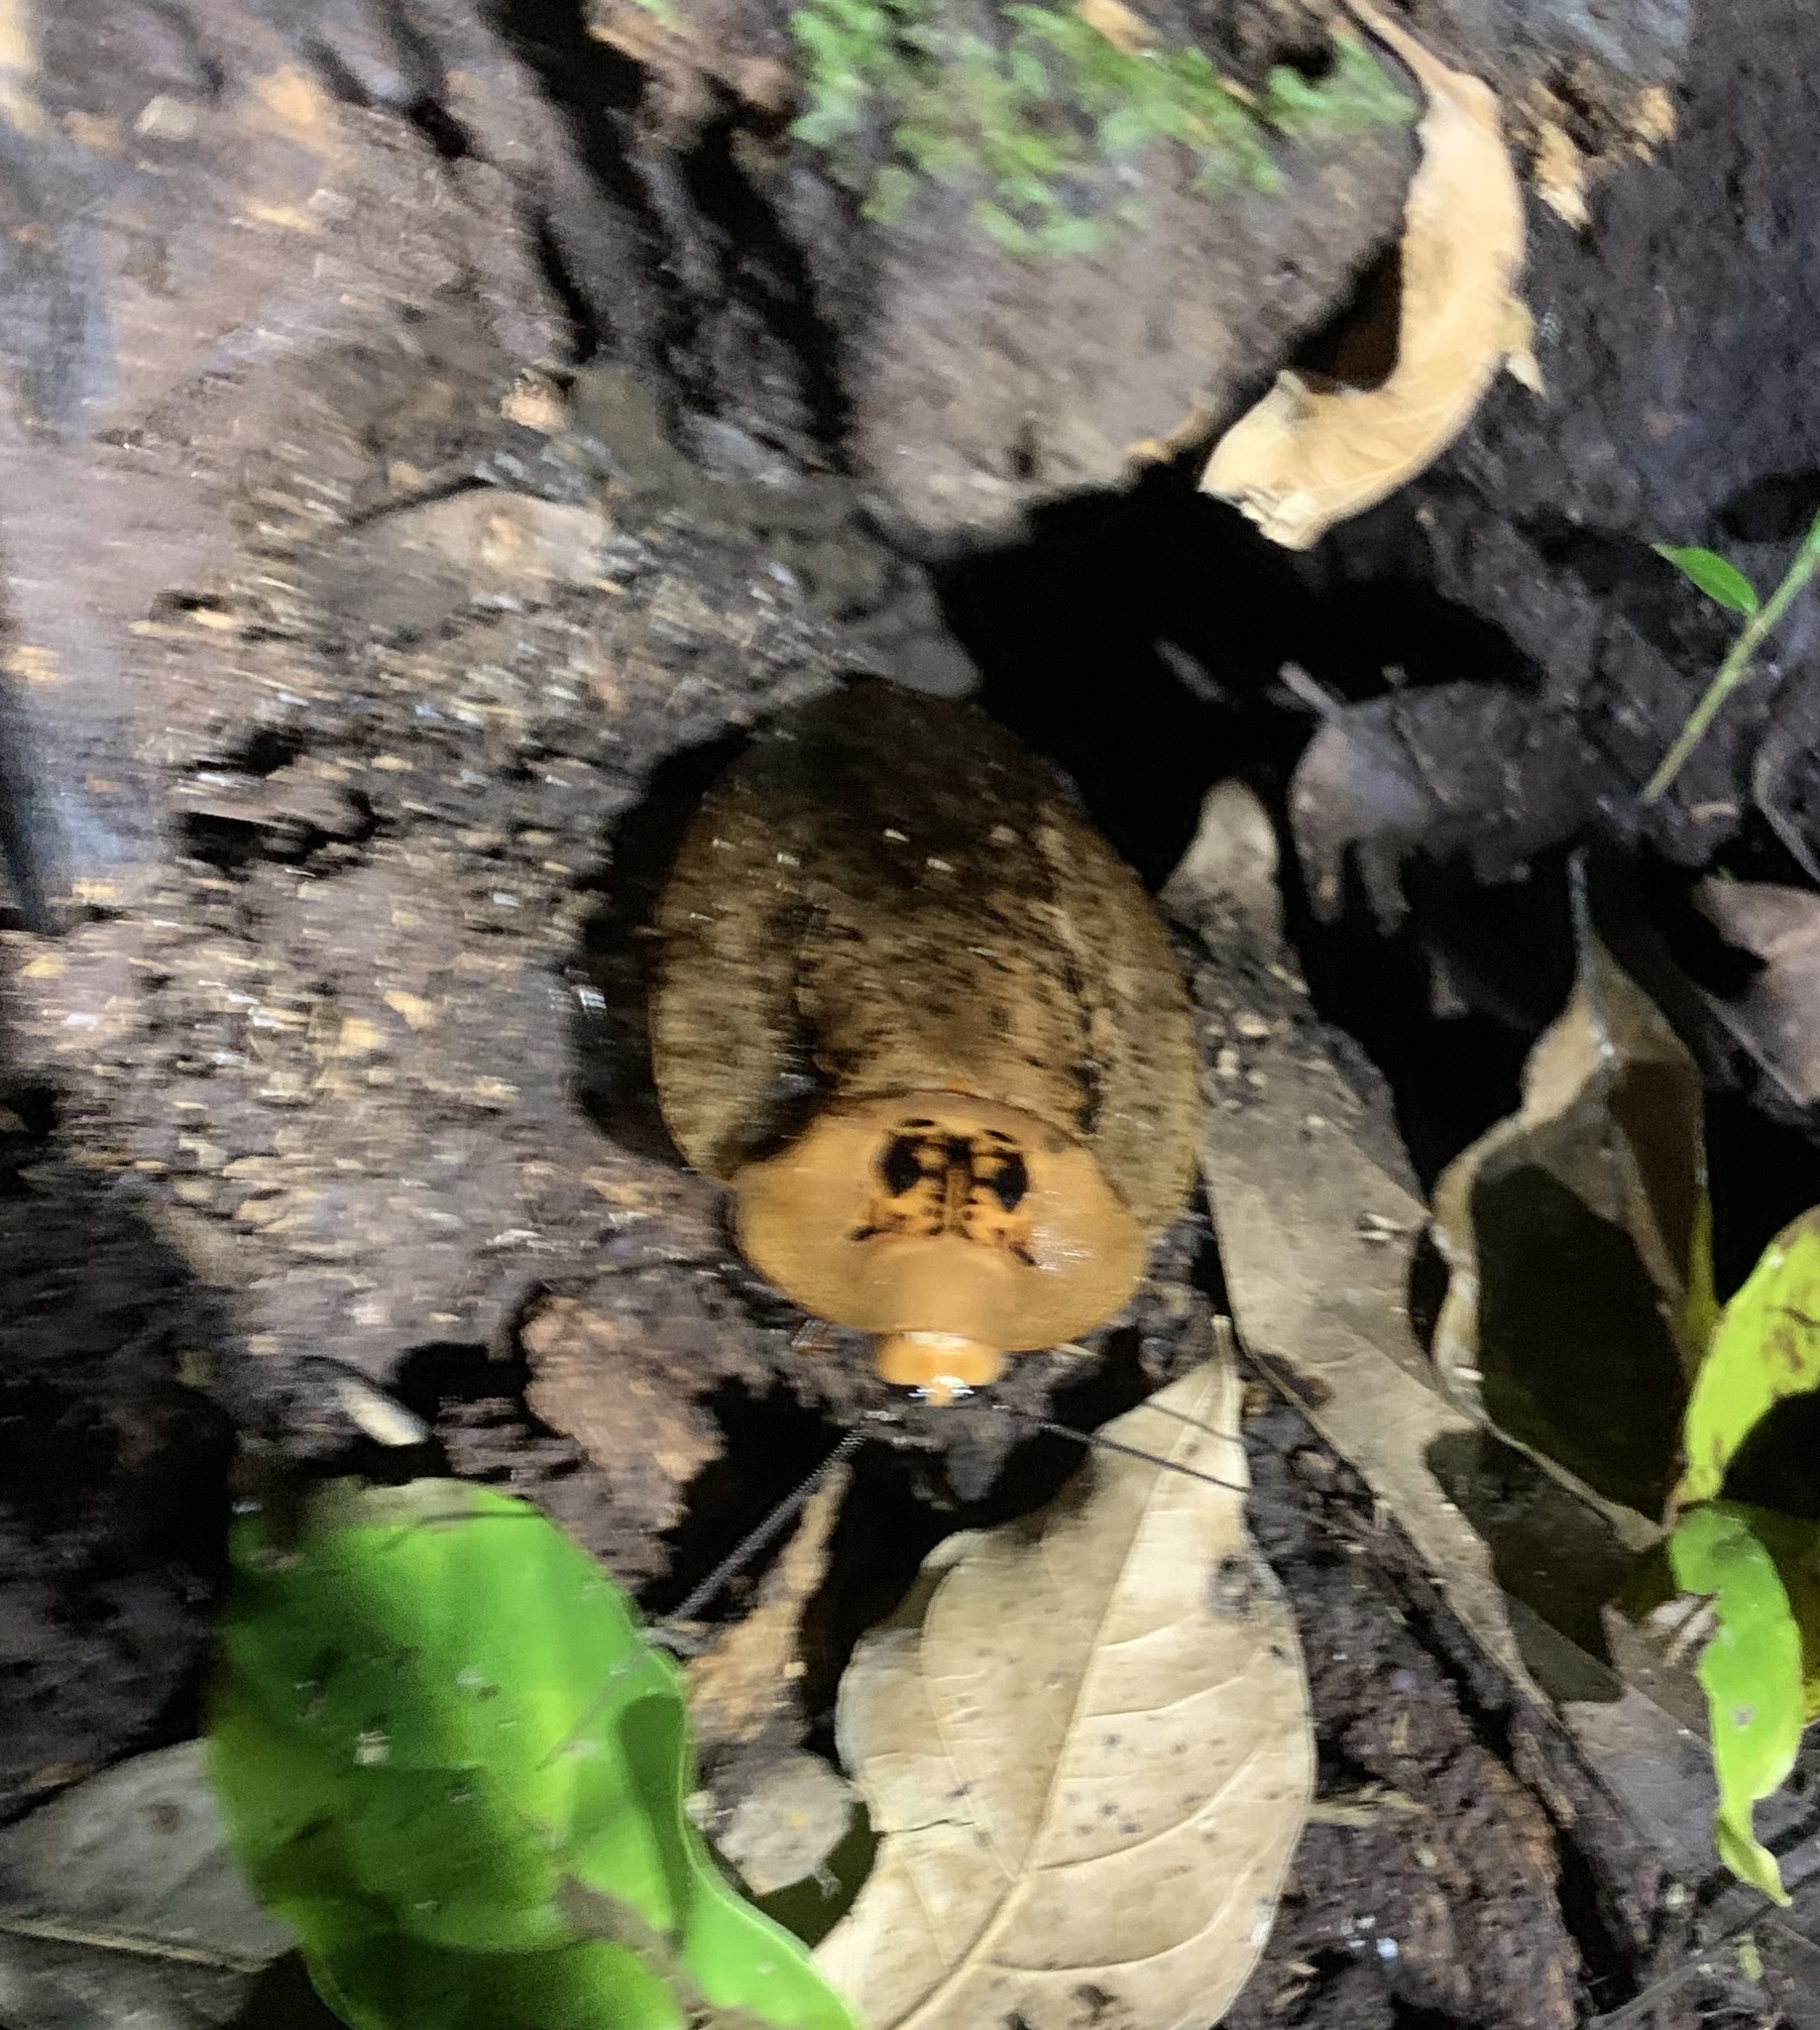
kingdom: Animalia
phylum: Arthropoda
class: Insecta
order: Blattodea
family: Blaberidae
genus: Archimandrita
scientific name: Archimandrita tessellata
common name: Peppered cockroach
